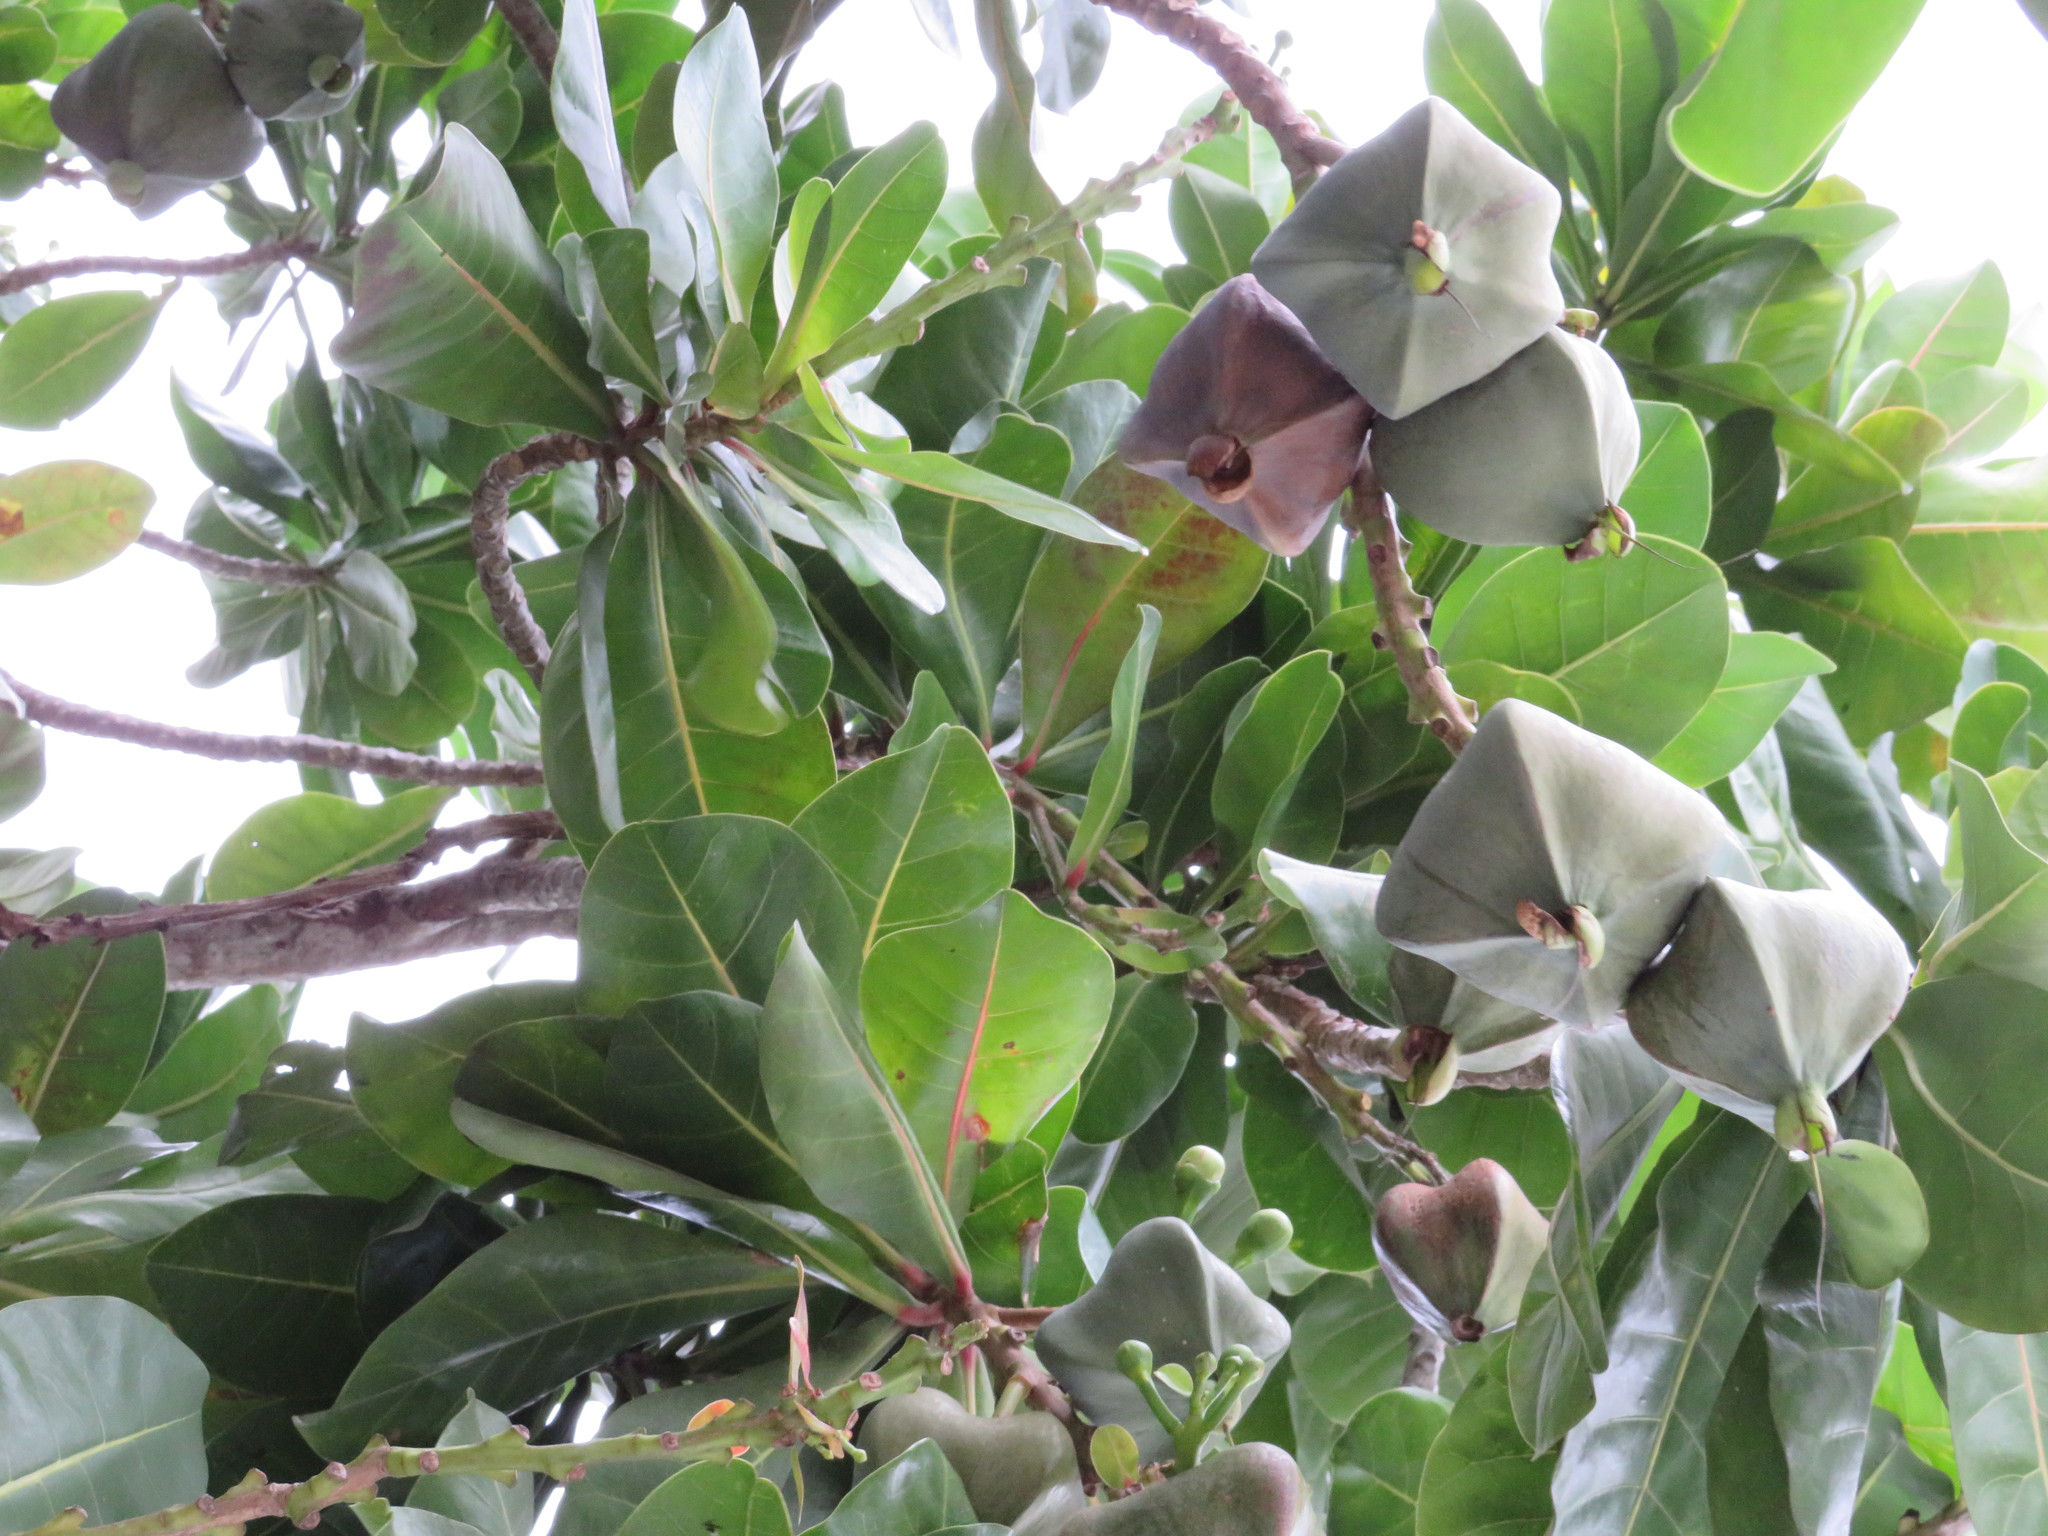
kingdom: Plantae
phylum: Tracheophyta
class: Magnoliopsida
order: Ericales
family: Lecythidaceae
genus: Barringtonia
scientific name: Barringtonia asiatica
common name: Mango-pine
